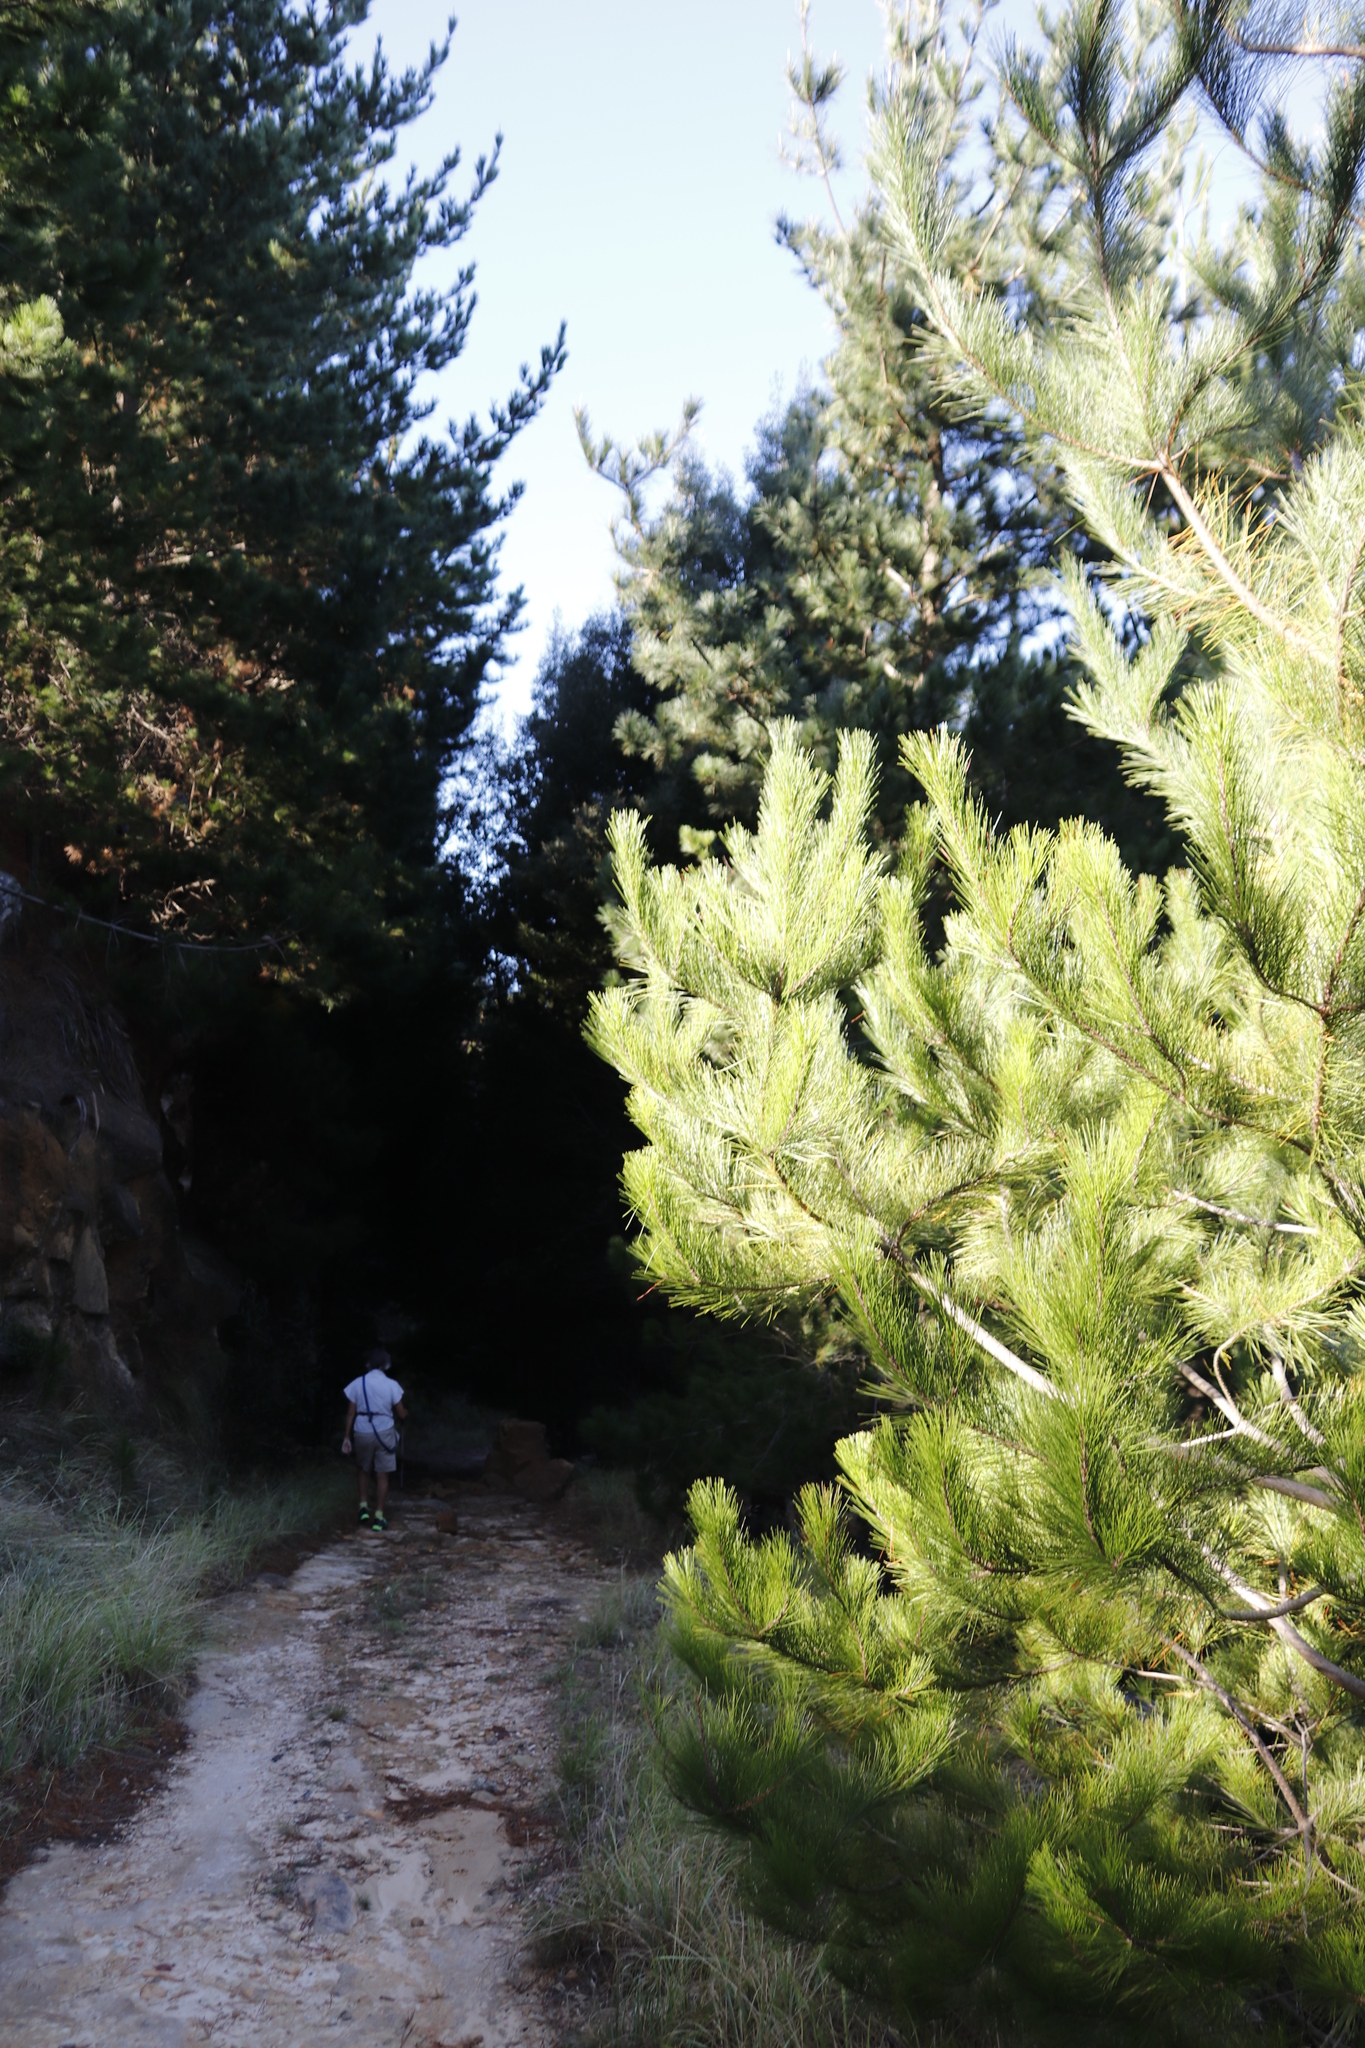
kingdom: Plantae
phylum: Tracheophyta
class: Pinopsida
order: Pinales
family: Pinaceae
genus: Pinus
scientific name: Pinus radiata
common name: Monterey pine
